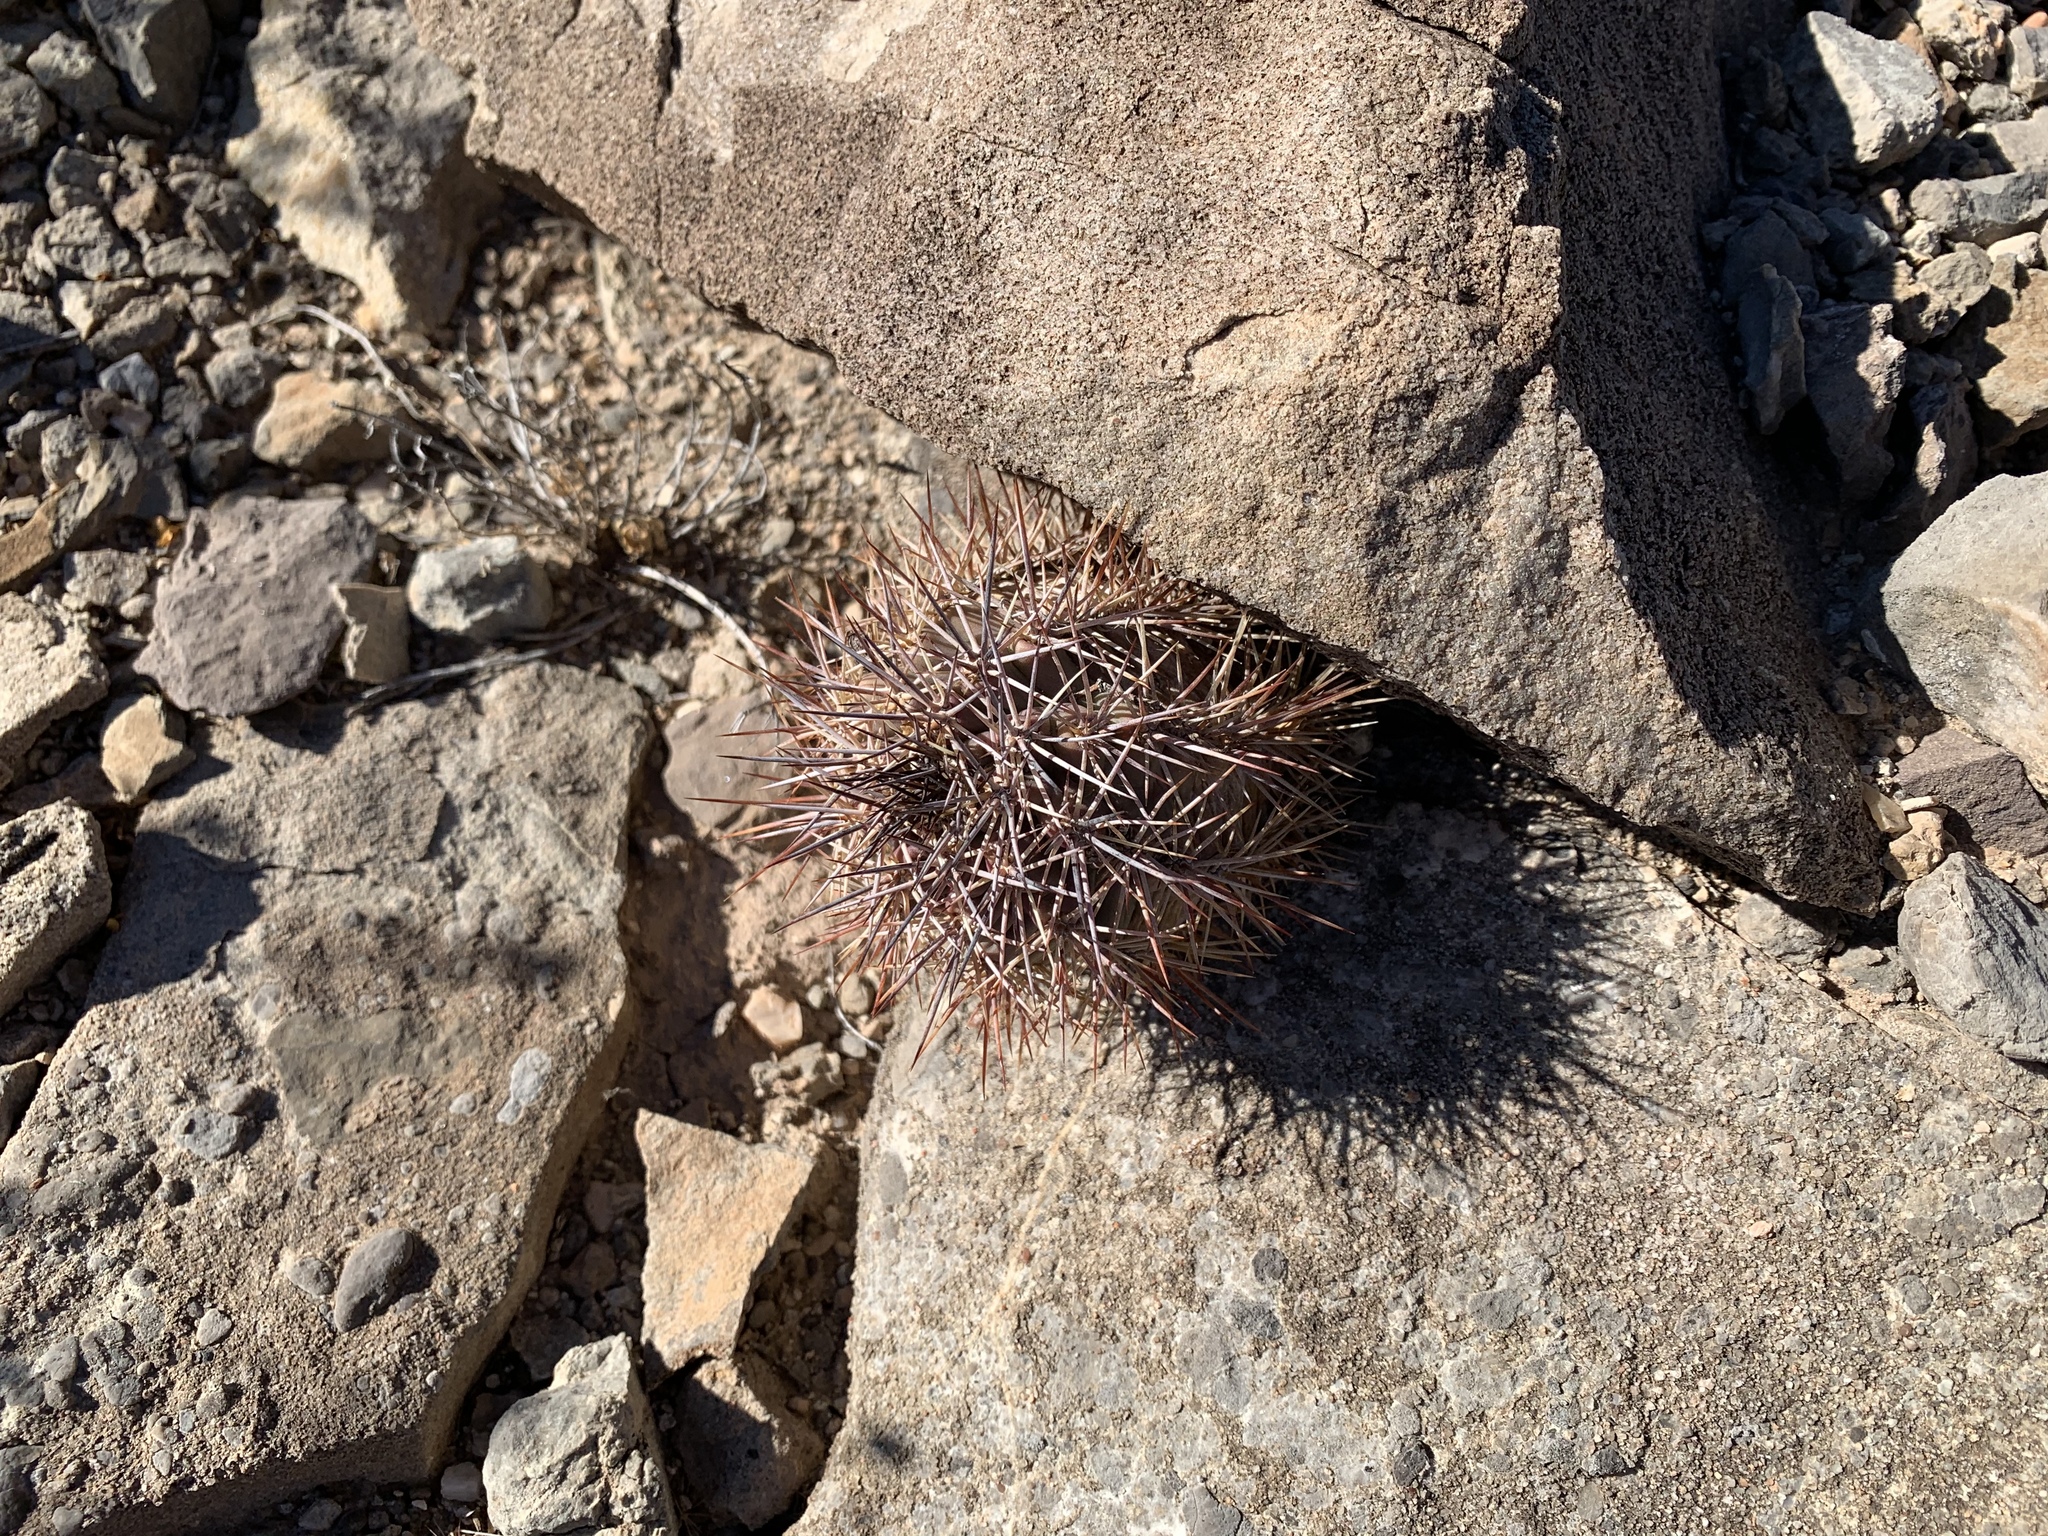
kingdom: Plantae
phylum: Tracheophyta
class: Magnoliopsida
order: Caryophyllales
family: Cactaceae
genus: Echinocereus
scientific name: Echinocereus coccineus
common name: Scarlet hedgehog cactus
